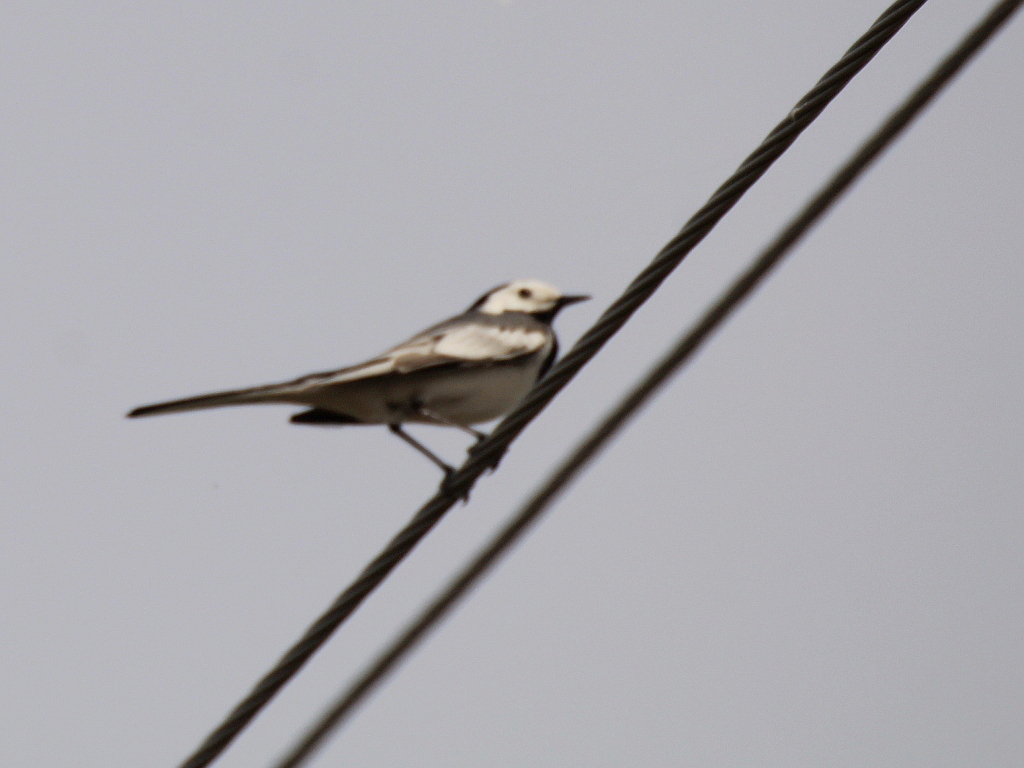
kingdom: Animalia
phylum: Chordata
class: Aves
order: Passeriformes
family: Motacillidae
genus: Motacilla
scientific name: Motacilla alba
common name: White wagtail
